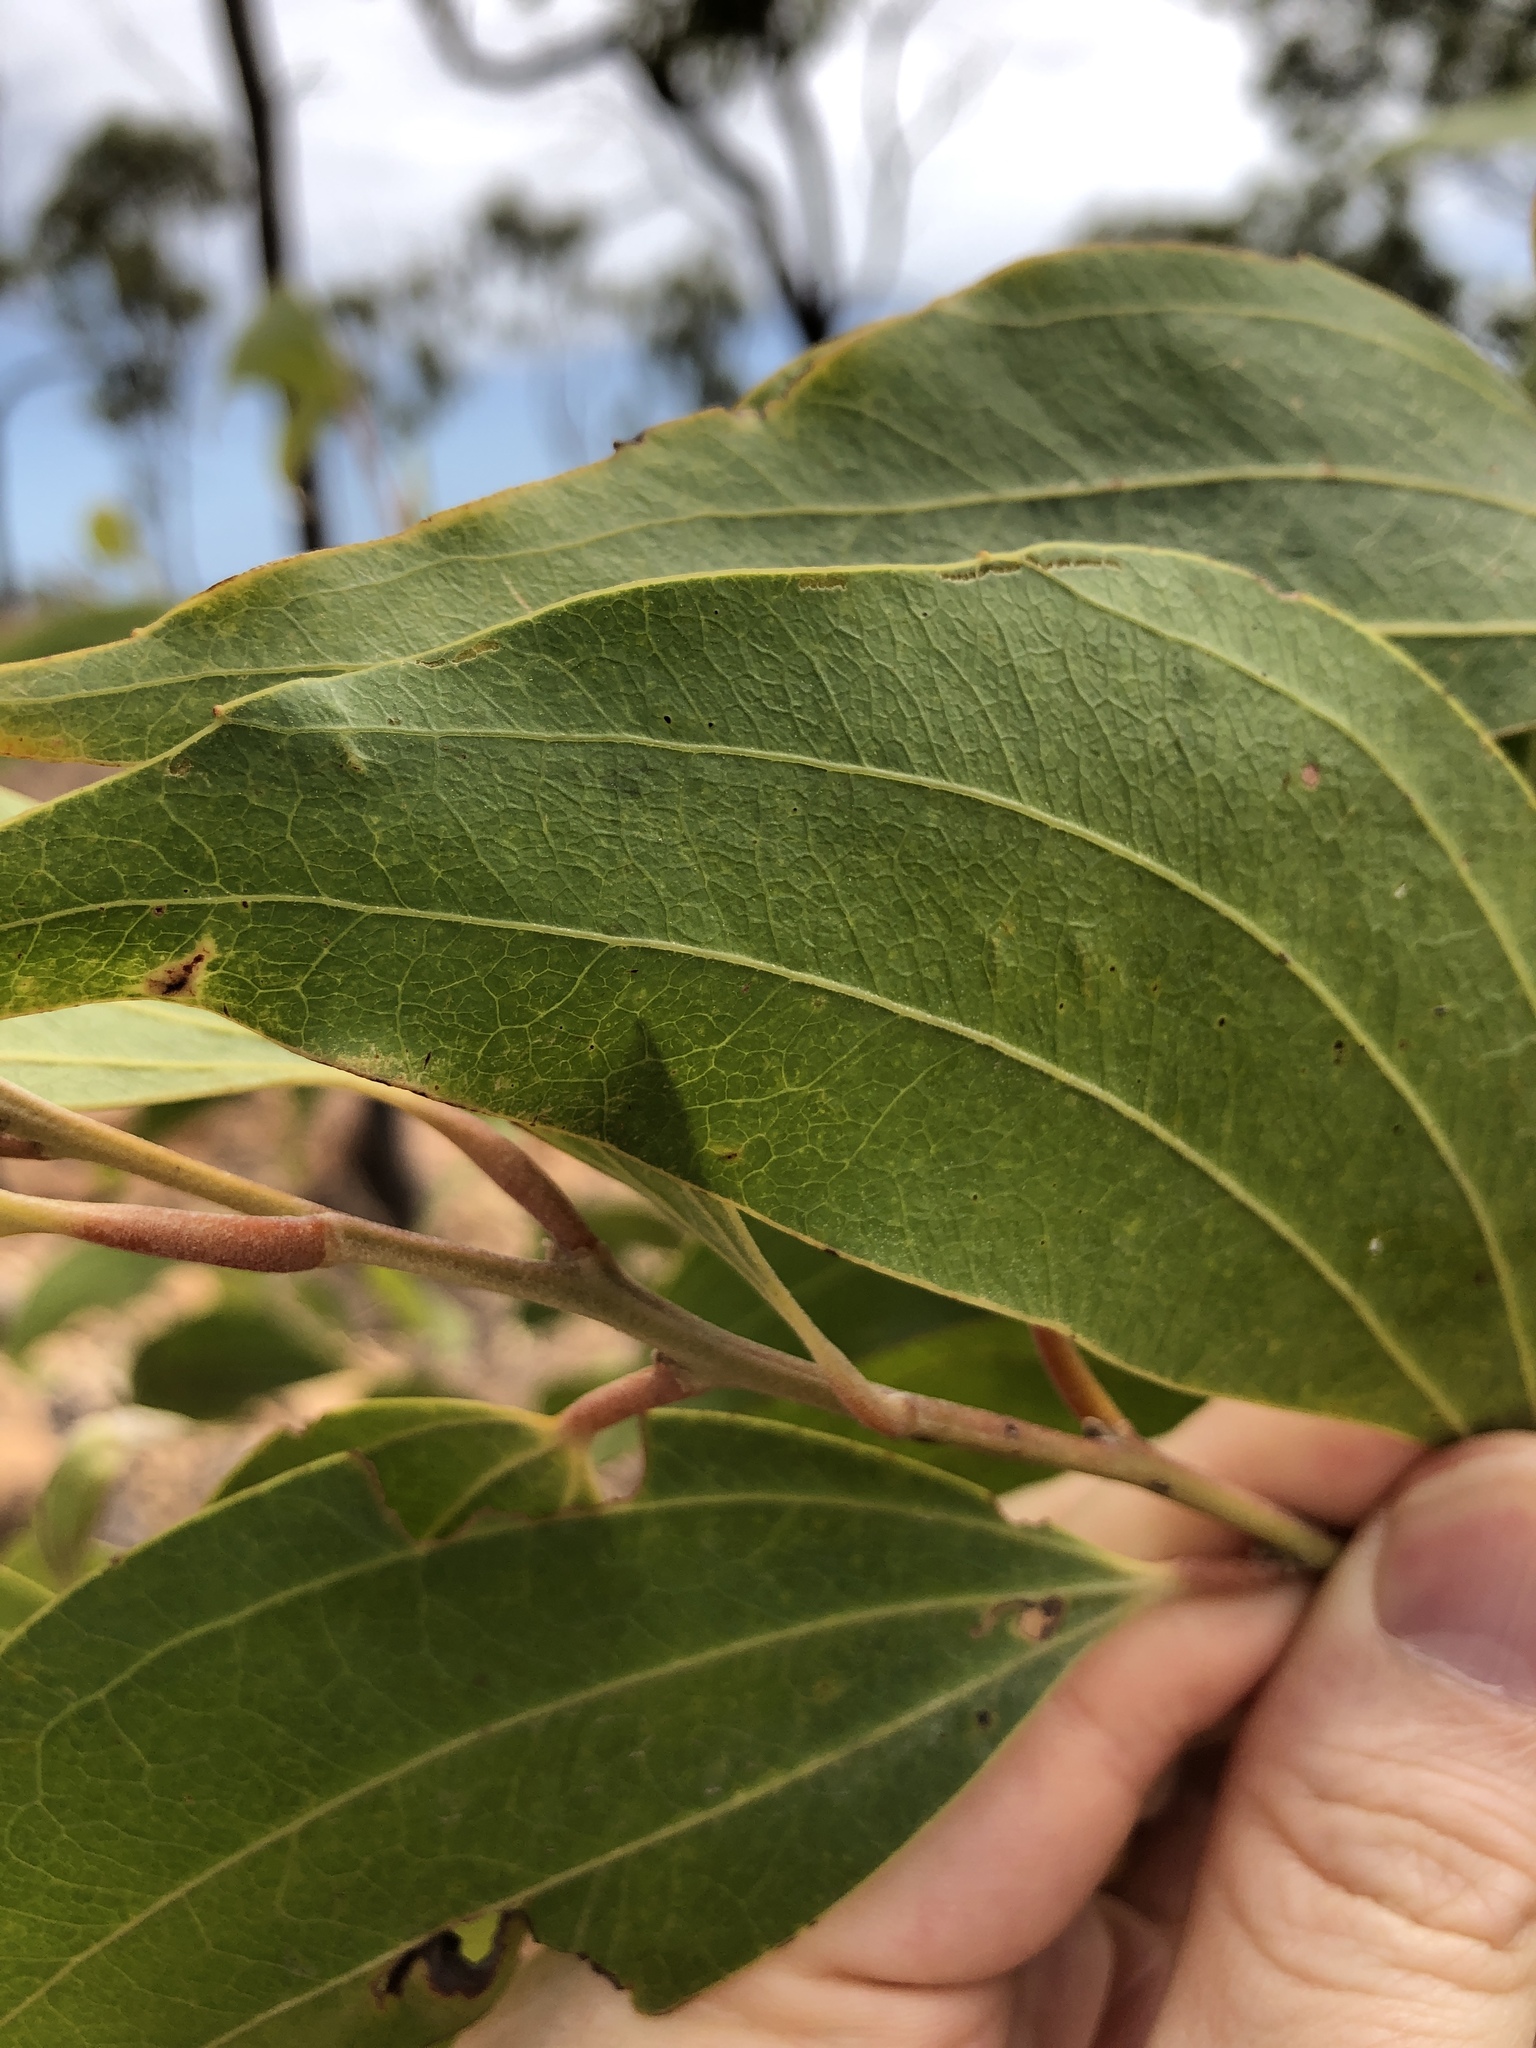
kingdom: Plantae
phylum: Tracheophyta
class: Magnoliopsida
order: Fabales
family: Fabaceae
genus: Acacia
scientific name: Acacia flavescens
